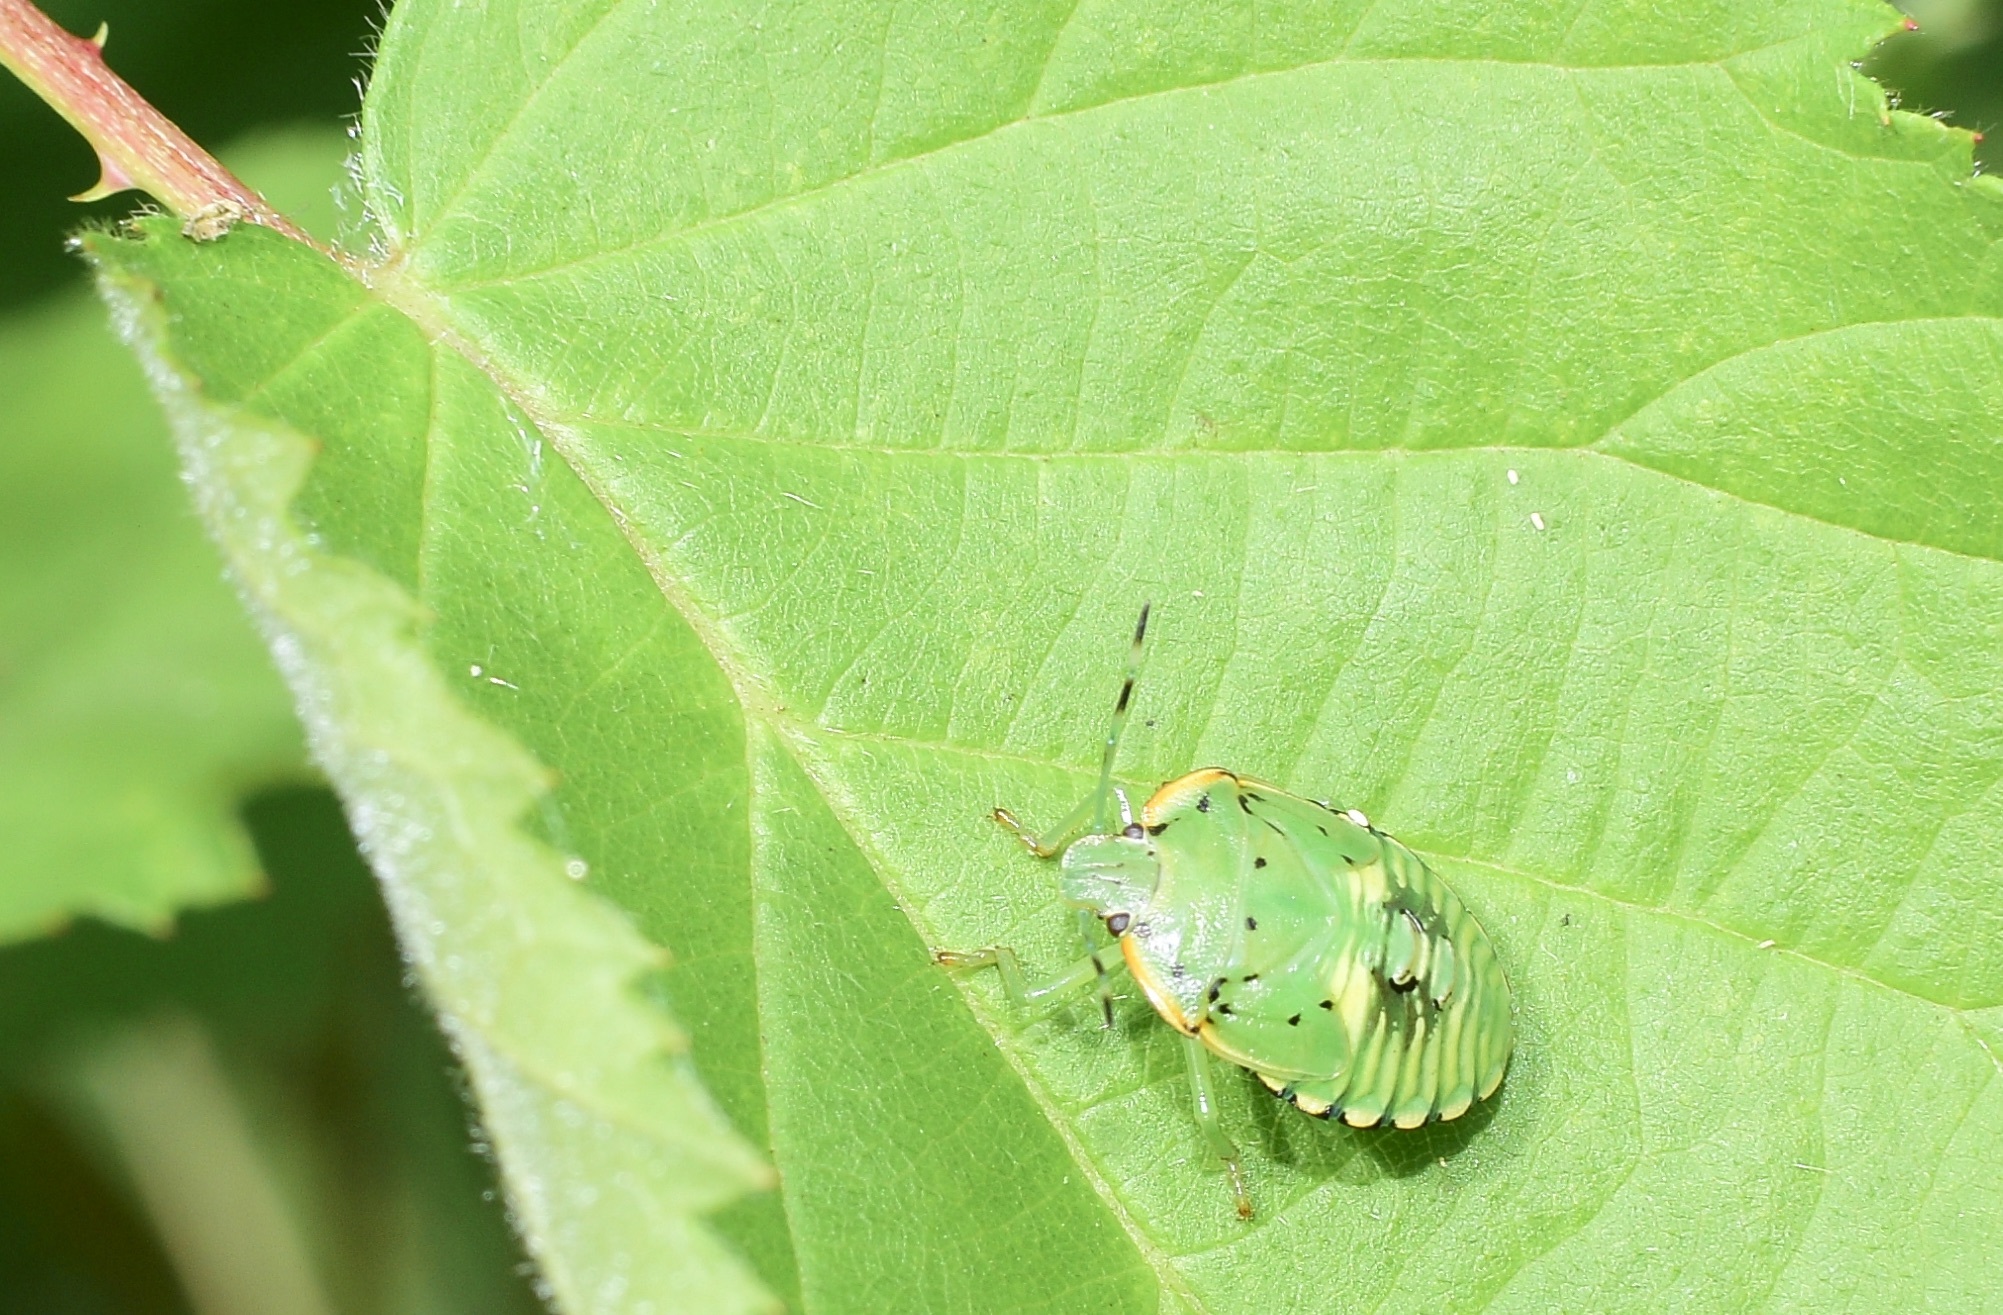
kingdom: Animalia
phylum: Arthropoda
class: Insecta
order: Hemiptera
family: Pentatomidae
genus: Chinavia
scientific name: Chinavia hilaris
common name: Green stink bug
